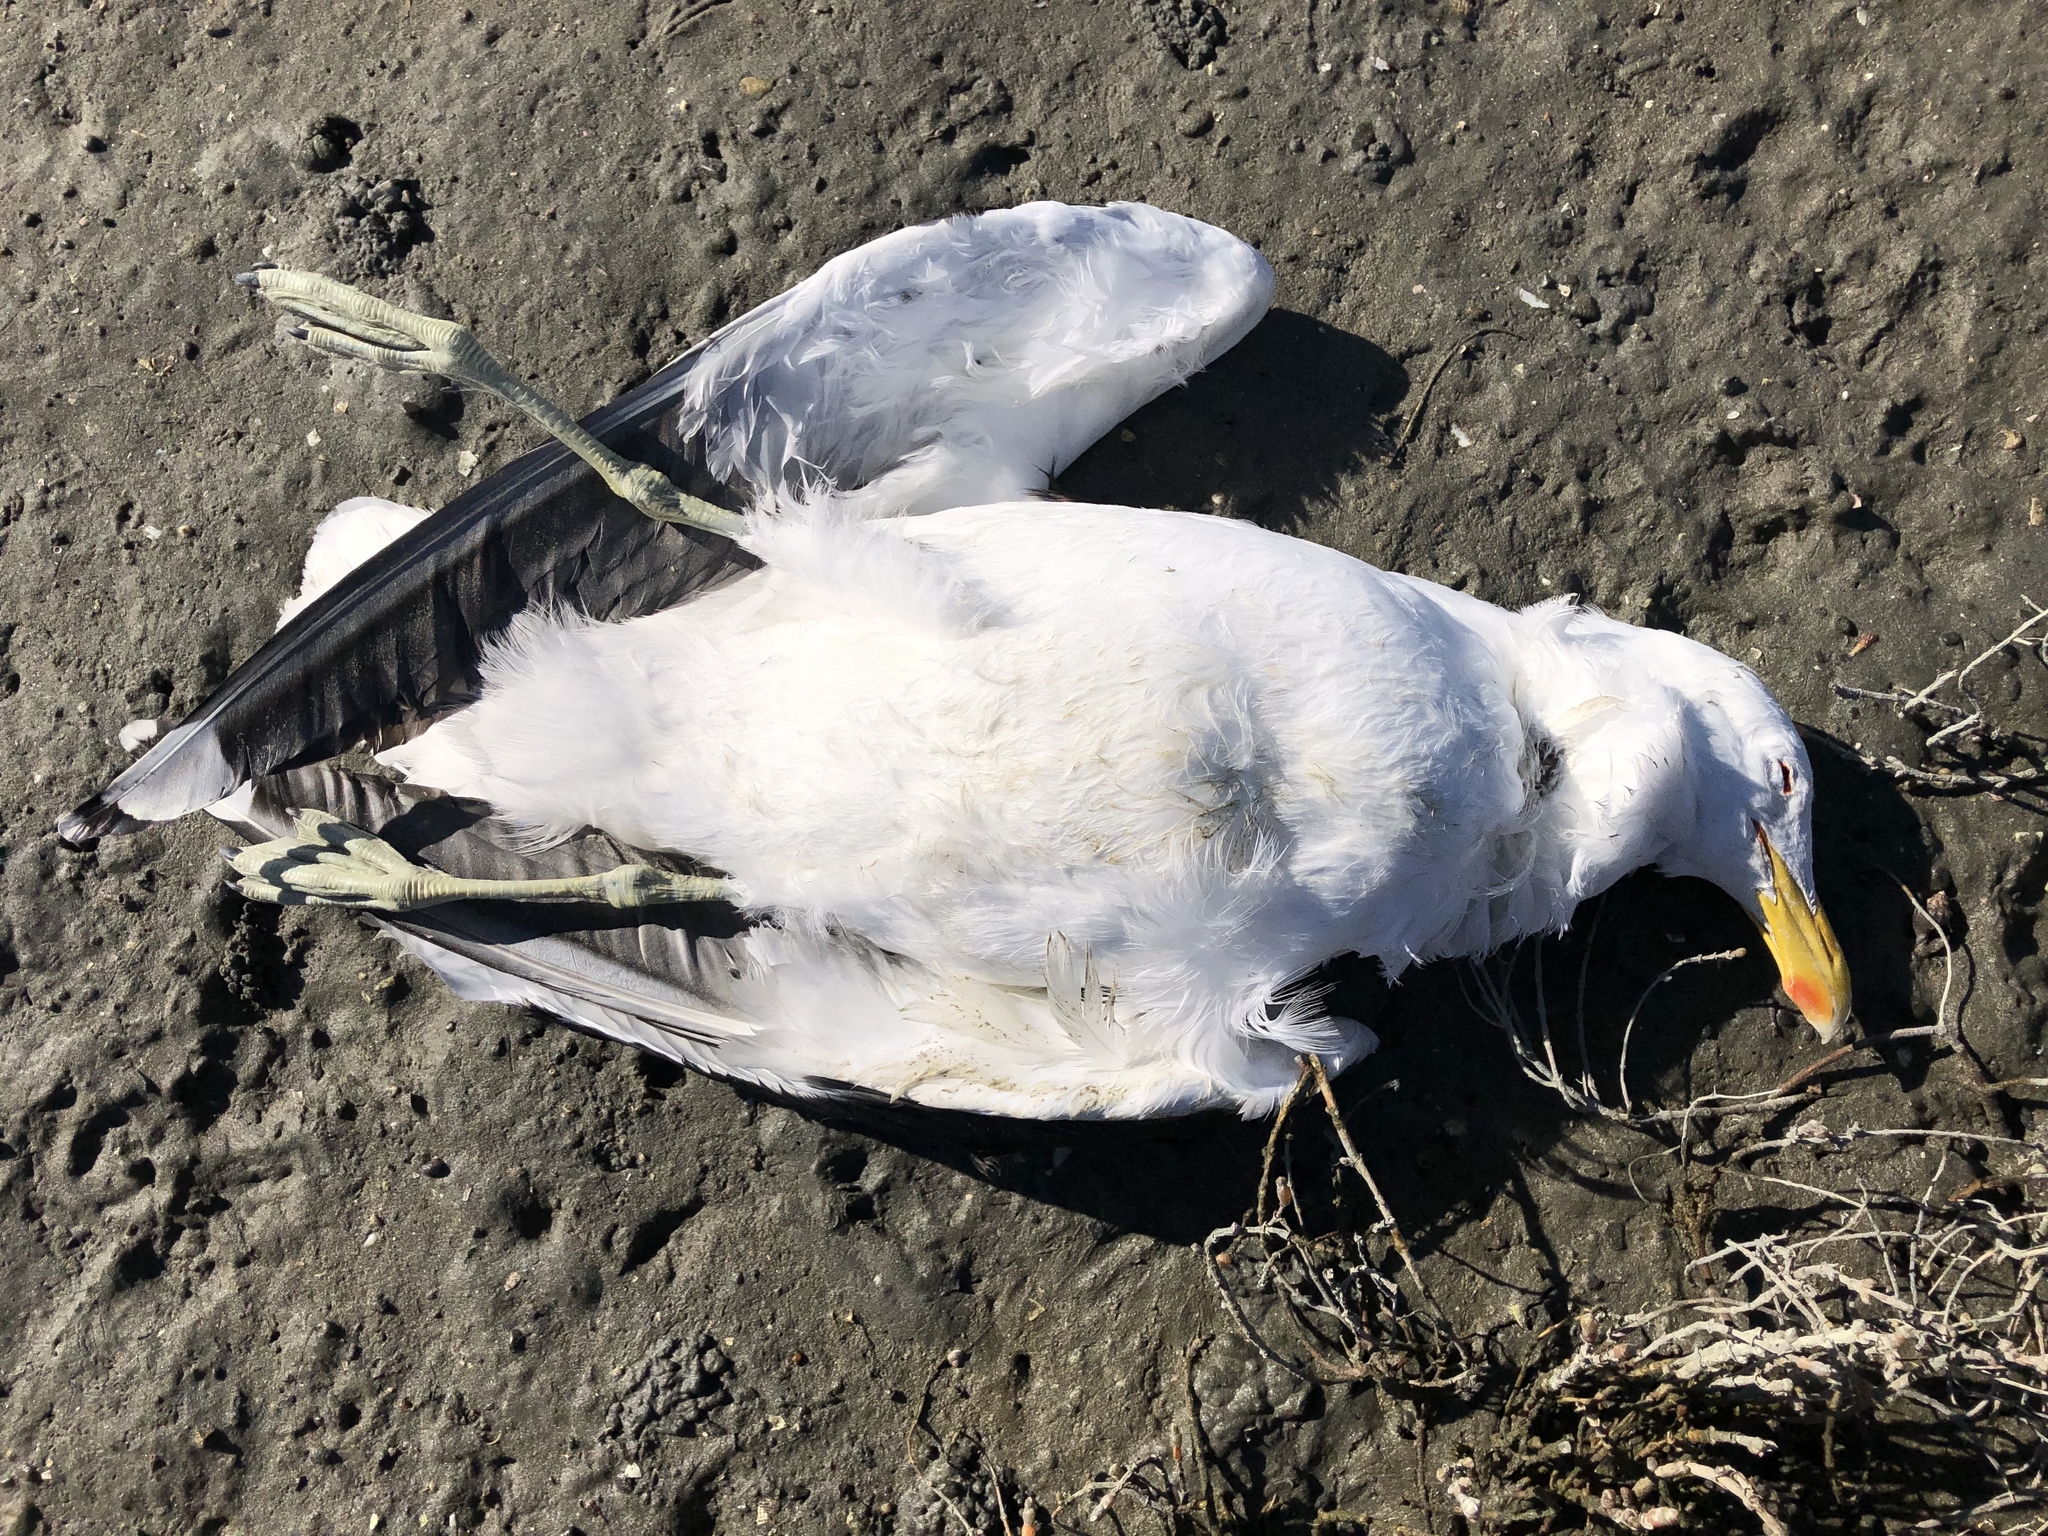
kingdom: Animalia
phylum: Chordata
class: Aves
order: Charadriiformes
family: Laridae
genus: Larus
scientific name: Larus dominicanus
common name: Kelp gull
